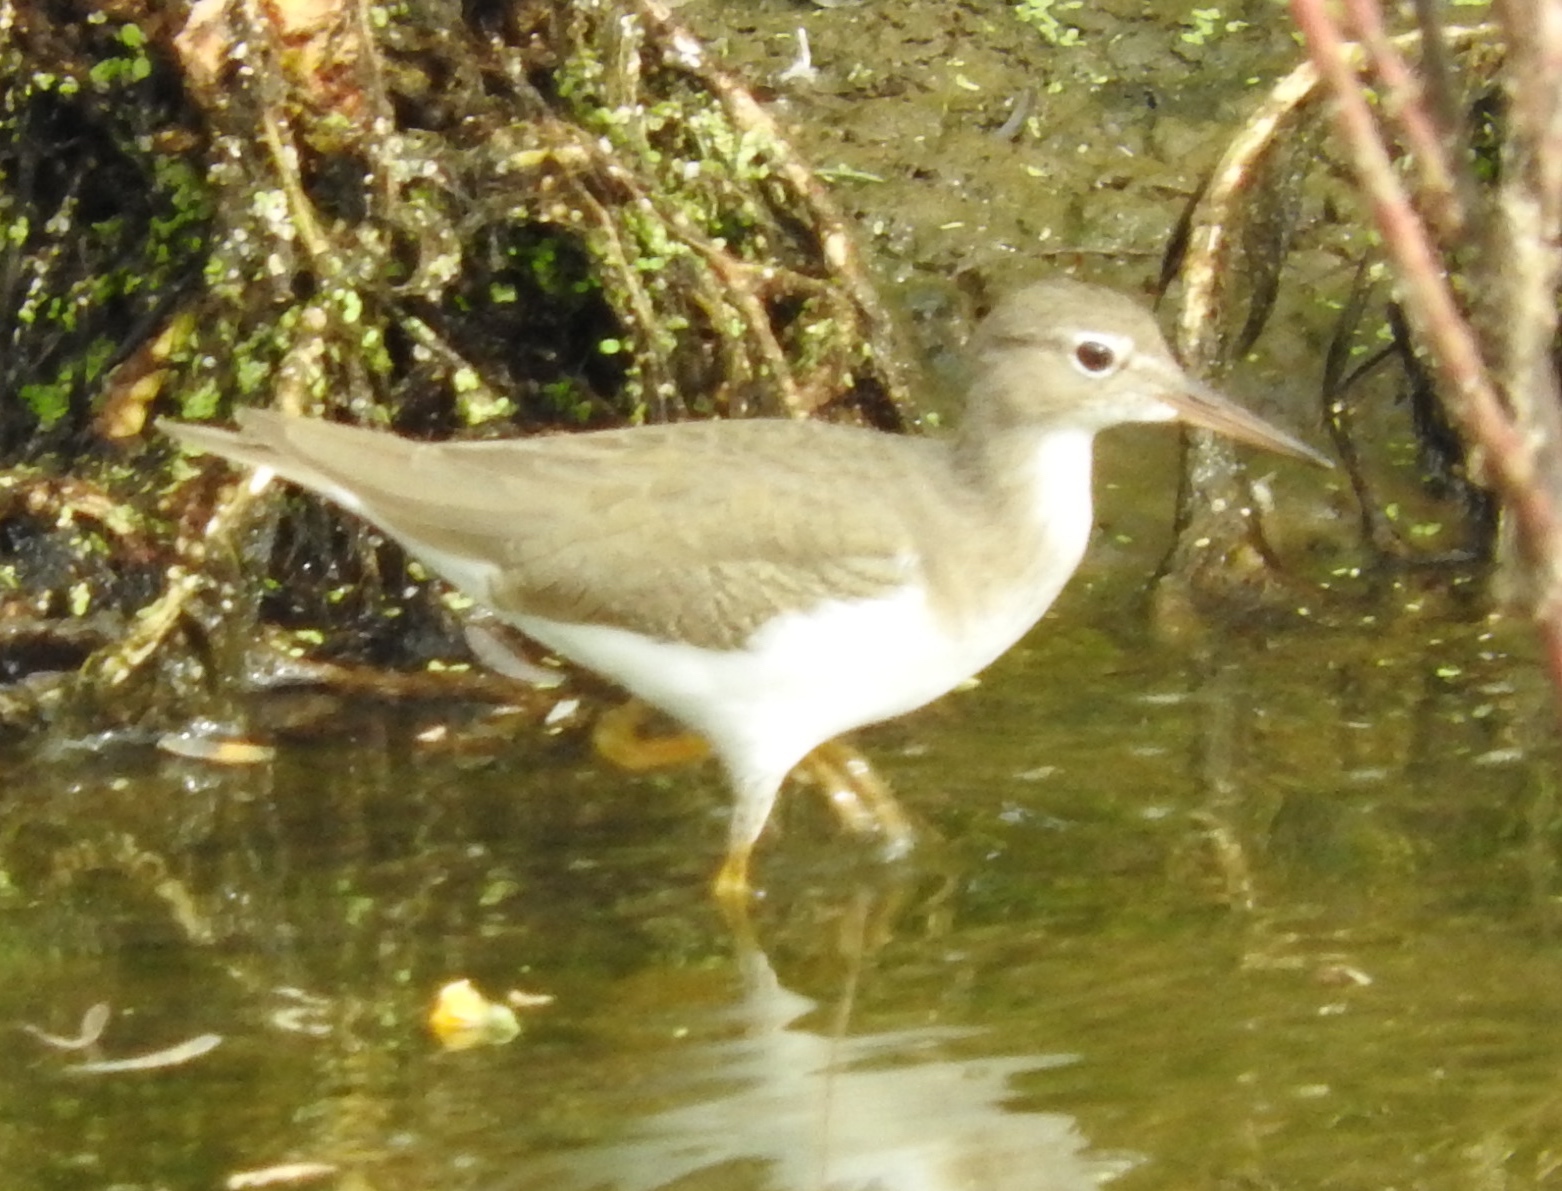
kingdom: Animalia
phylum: Chordata
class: Aves
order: Charadriiformes
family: Scolopacidae
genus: Actitis
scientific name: Actitis macularius
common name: Spotted sandpiper
